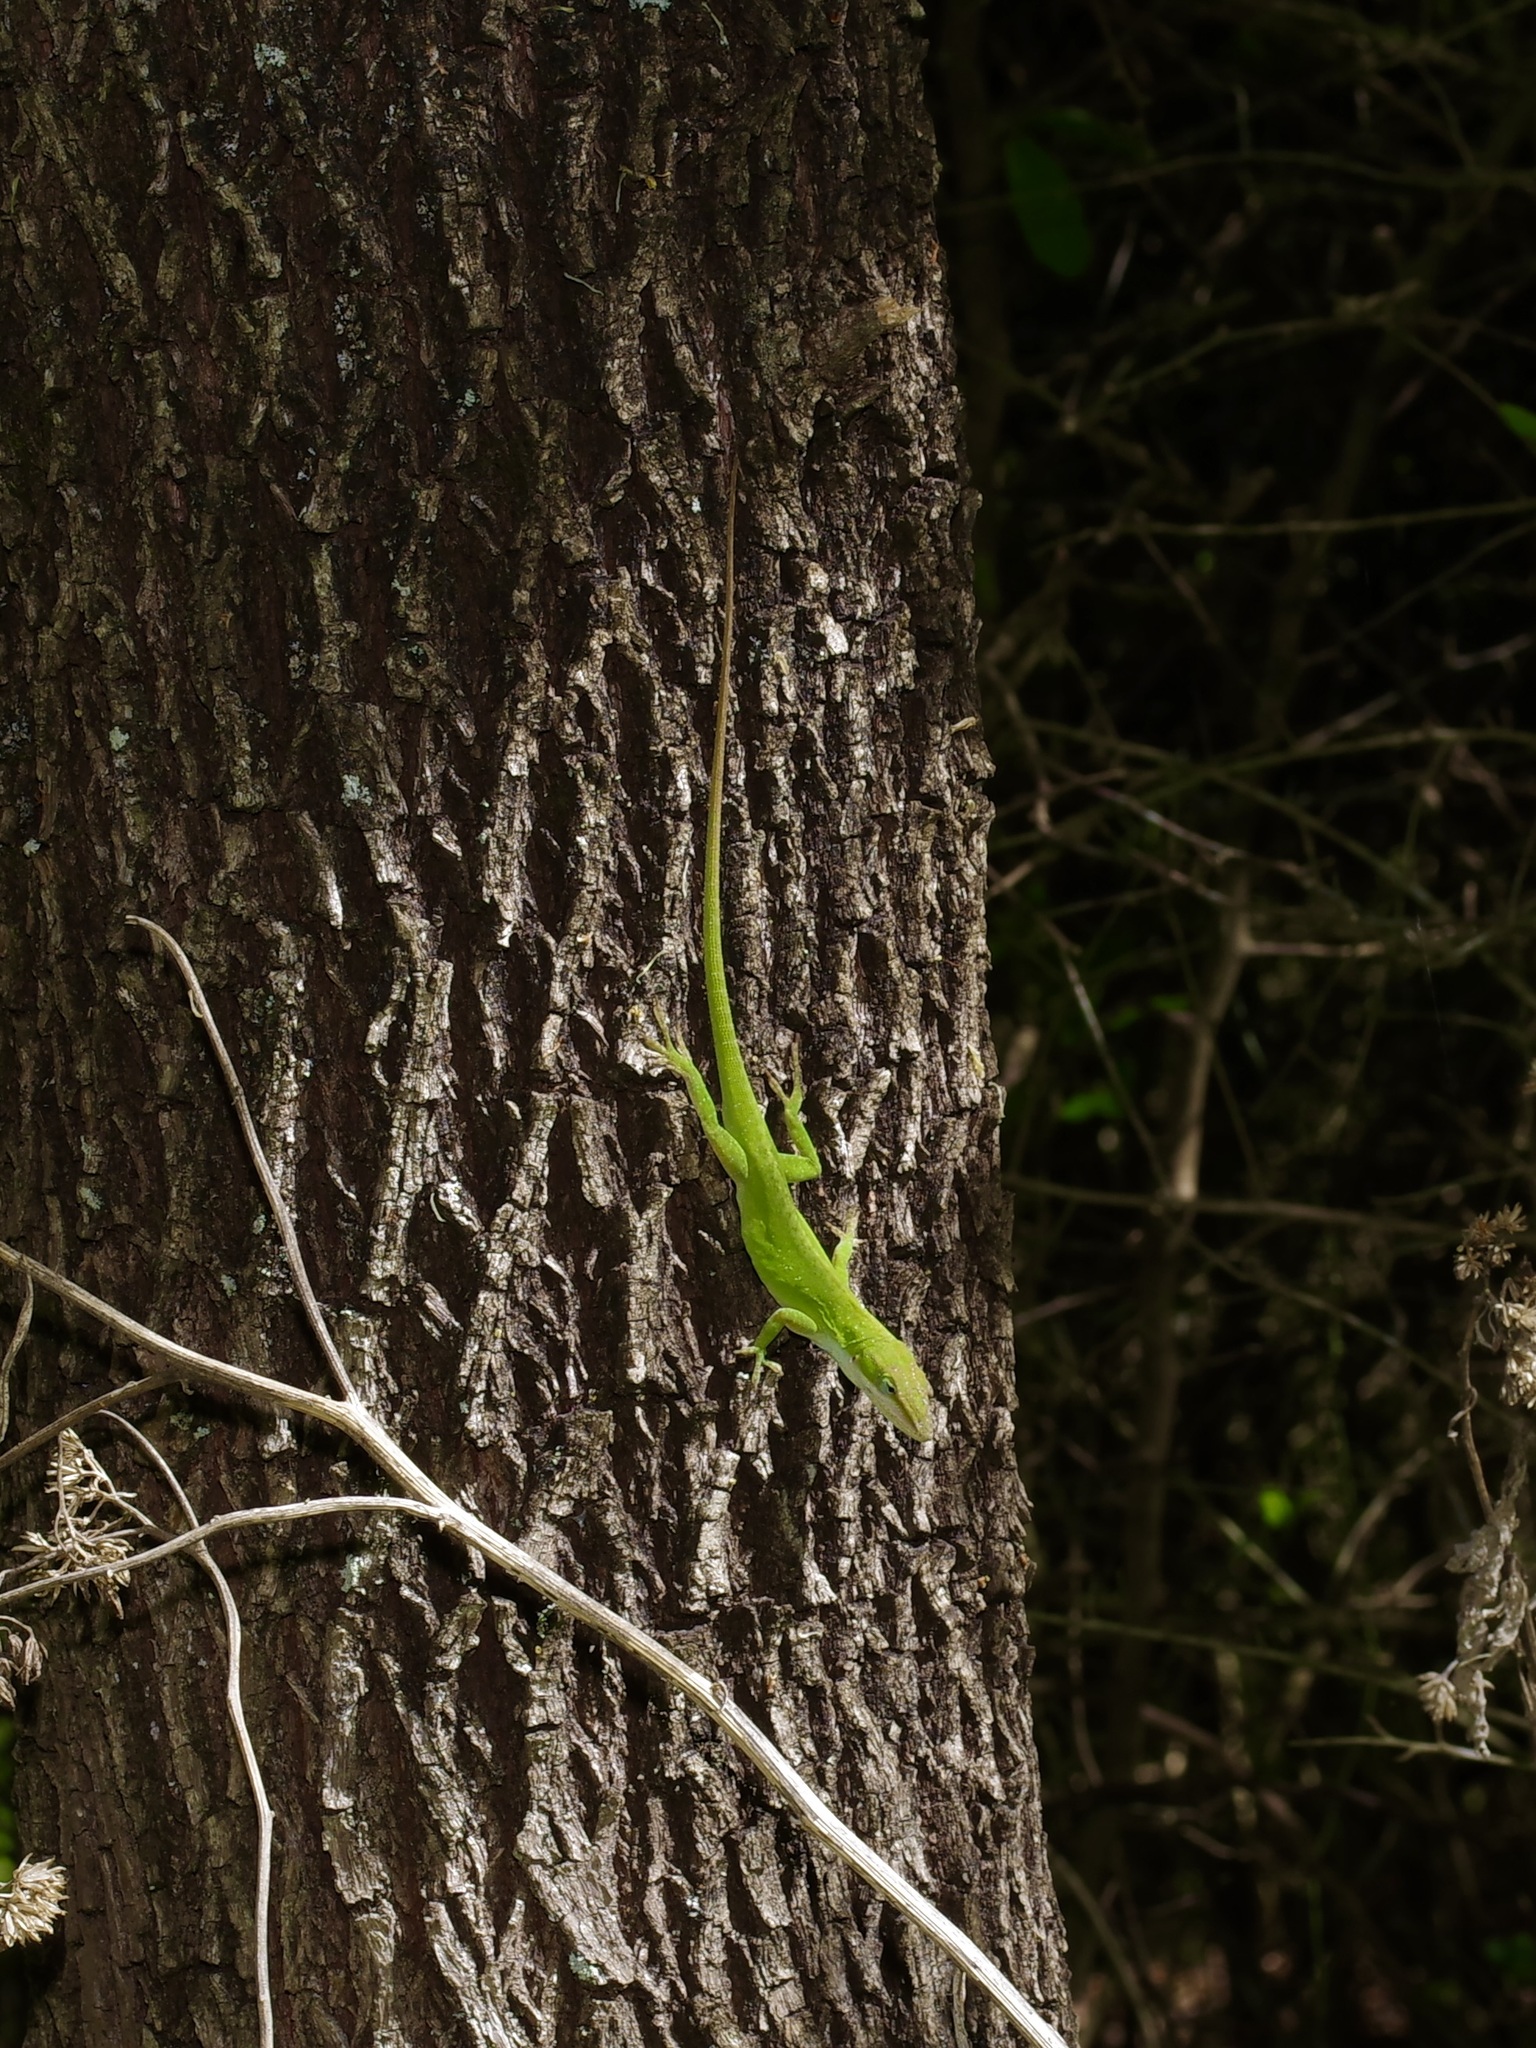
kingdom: Animalia
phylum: Chordata
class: Squamata
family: Dactyloidae
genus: Anolis
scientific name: Anolis carolinensis
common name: Green anole
